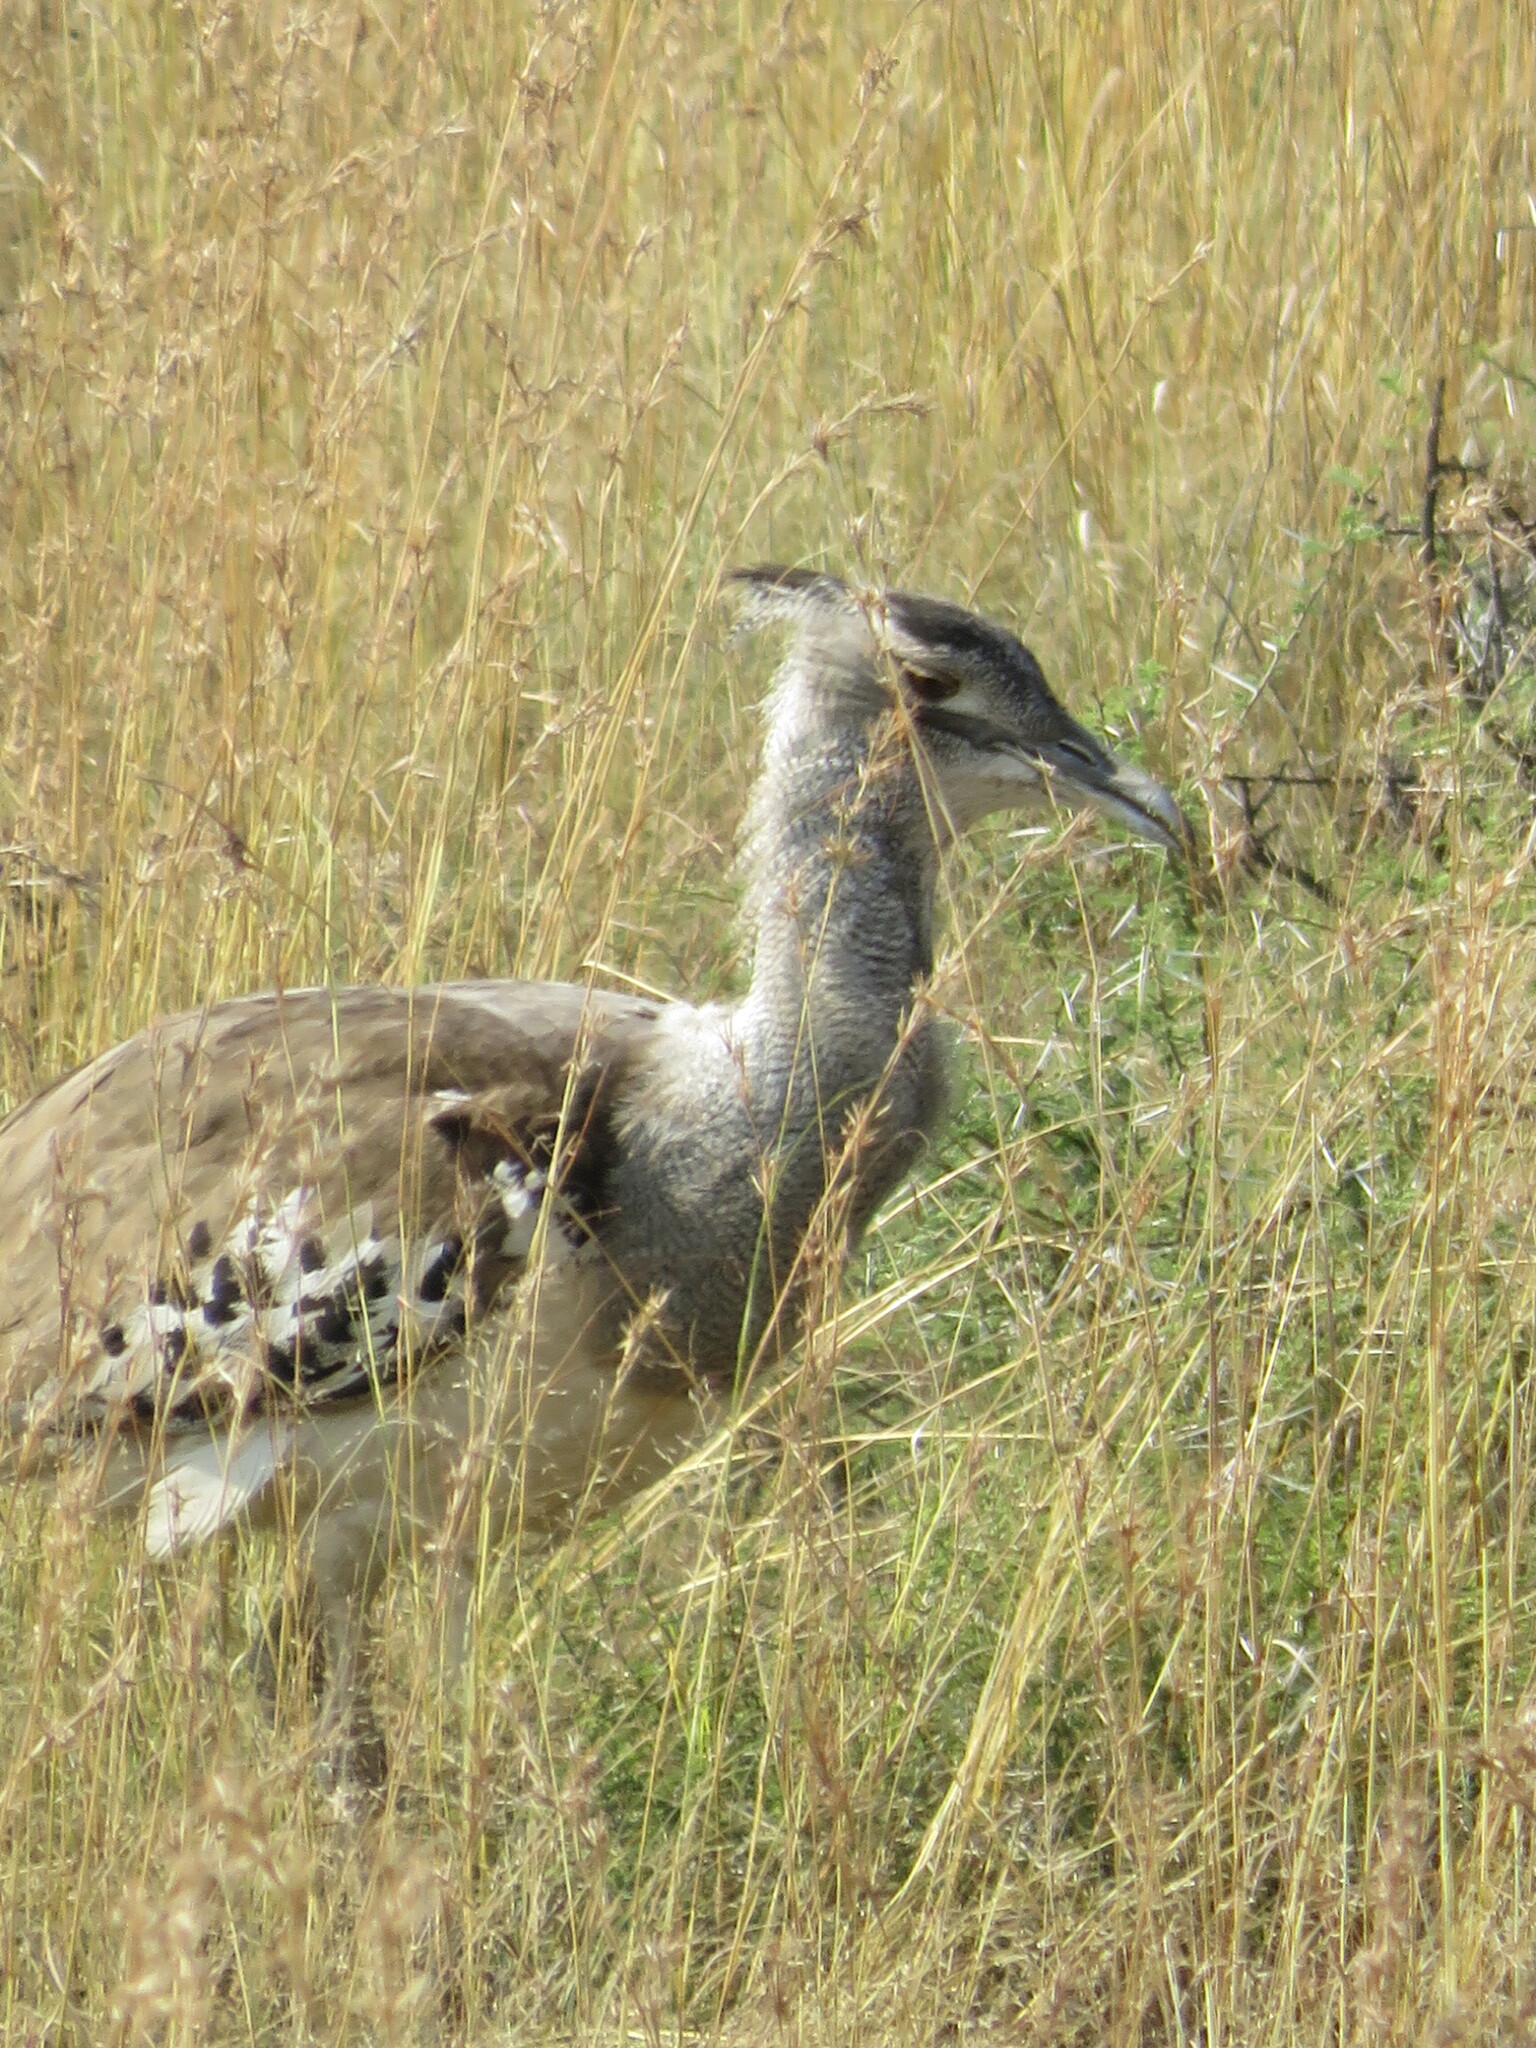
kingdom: Animalia
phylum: Chordata
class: Aves
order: Otidiformes
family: Otididae
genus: Ardeotis
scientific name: Ardeotis kori
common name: Kori bustard
